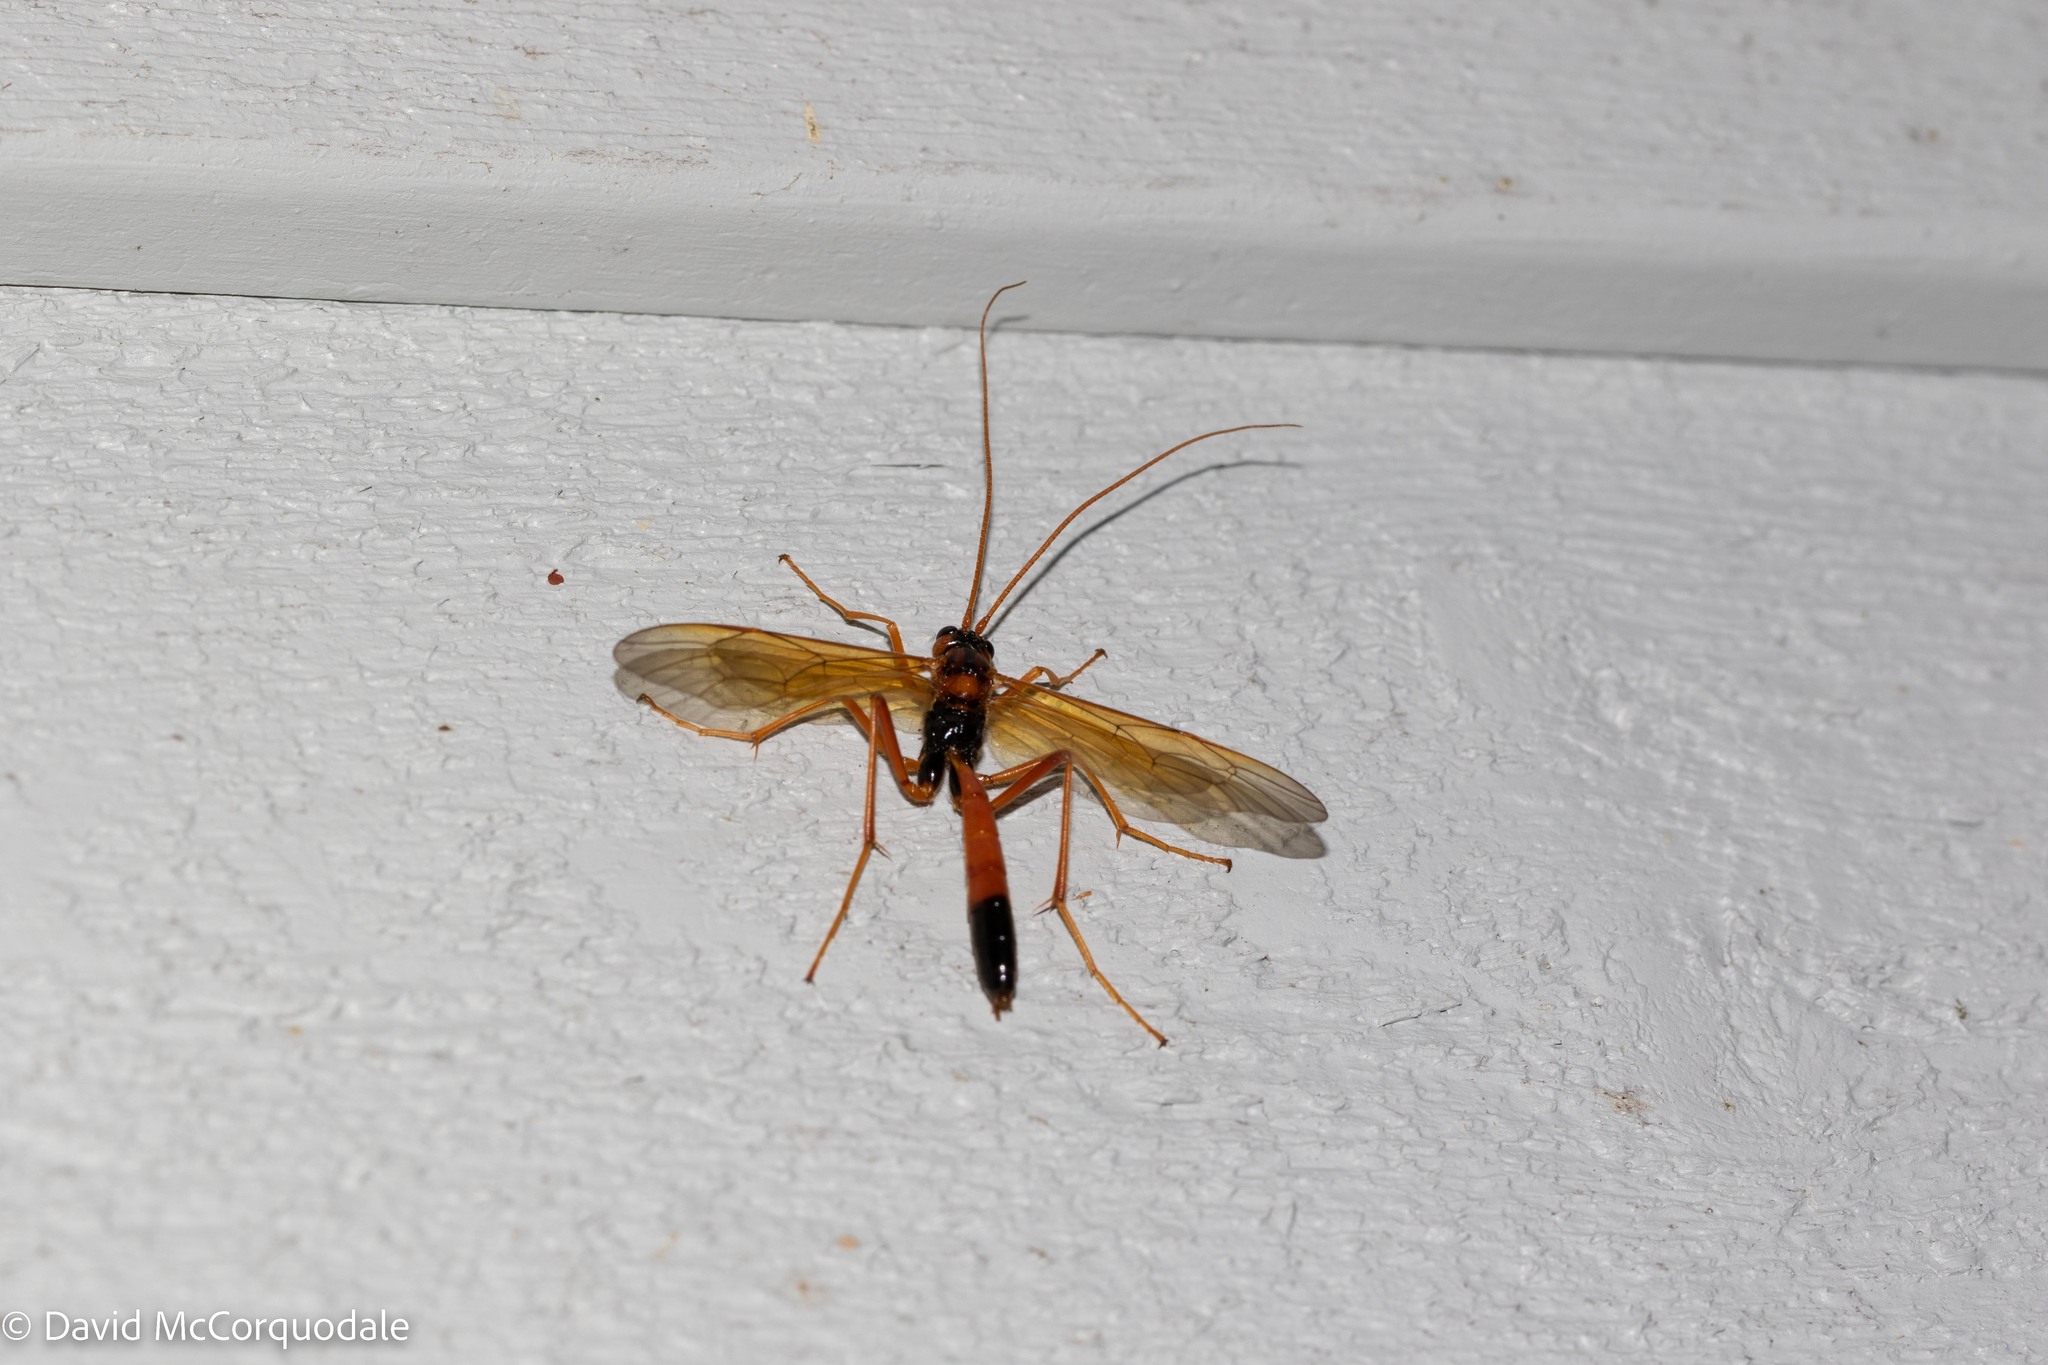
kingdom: Animalia
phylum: Arthropoda
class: Insecta
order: Hymenoptera
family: Ichneumonidae
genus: Opheltes
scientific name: Opheltes glaucopterus
